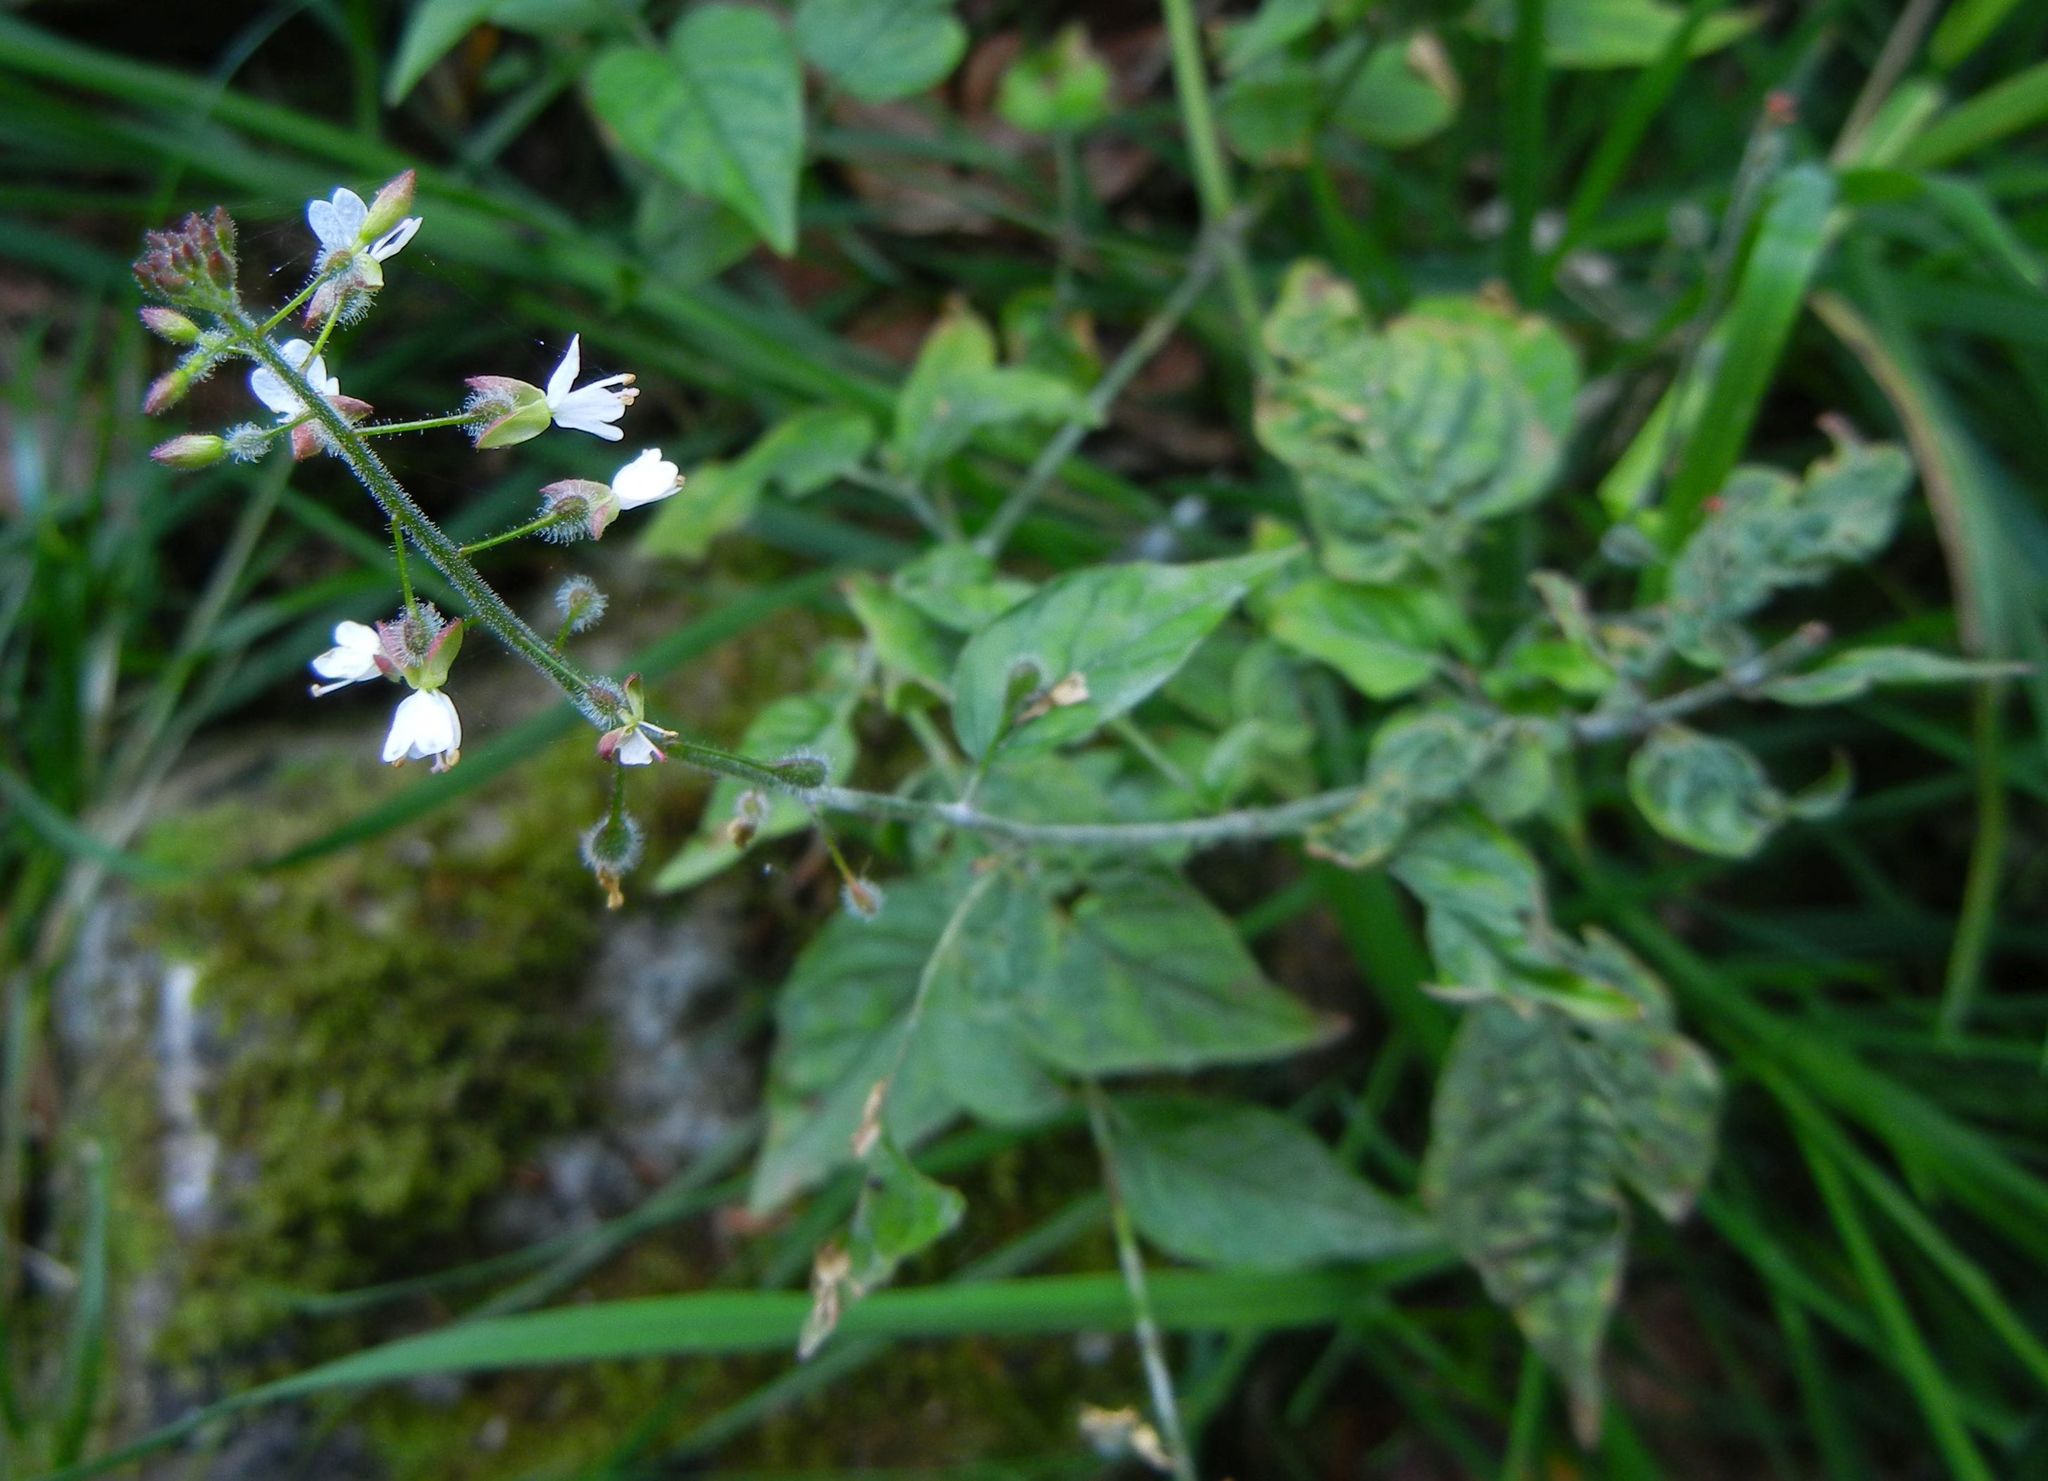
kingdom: Plantae
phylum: Tracheophyta
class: Magnoliopsida
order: Myrtales
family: Onagraceae
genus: Circaea
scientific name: Circaea lutetiana
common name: Enchanter's-nightshade
